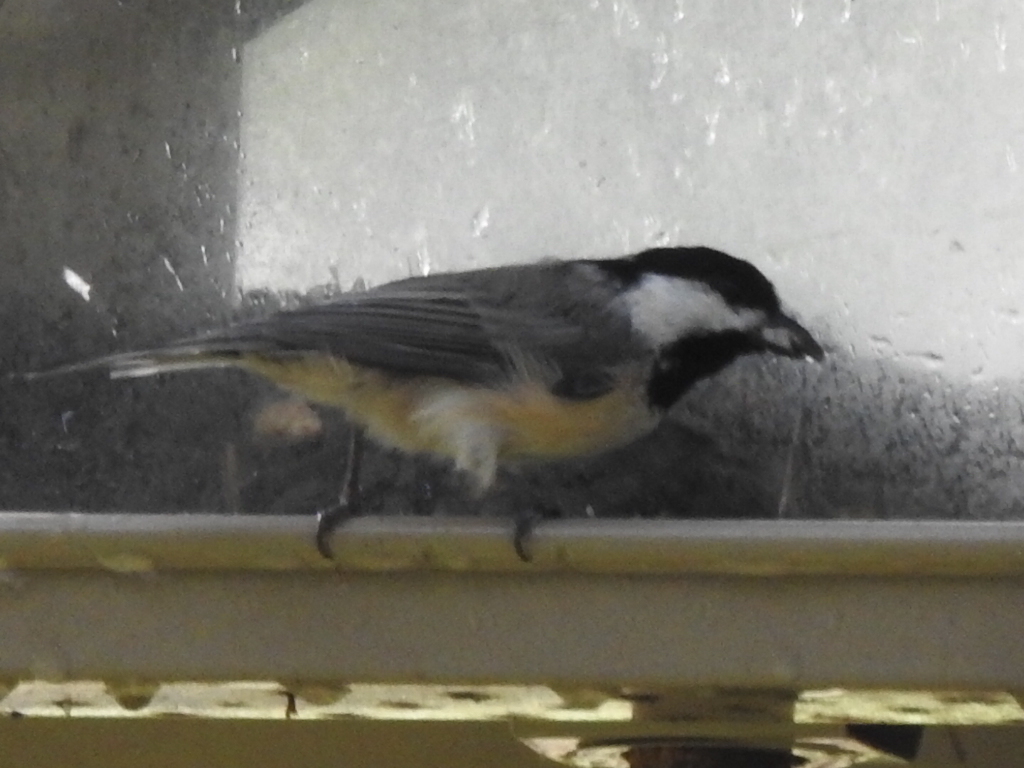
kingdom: Animalia
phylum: Chordata
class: Aves
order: Passeriformes
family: Paridae
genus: Poecile
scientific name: Poecile carolinensis
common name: Carolina chickadee
